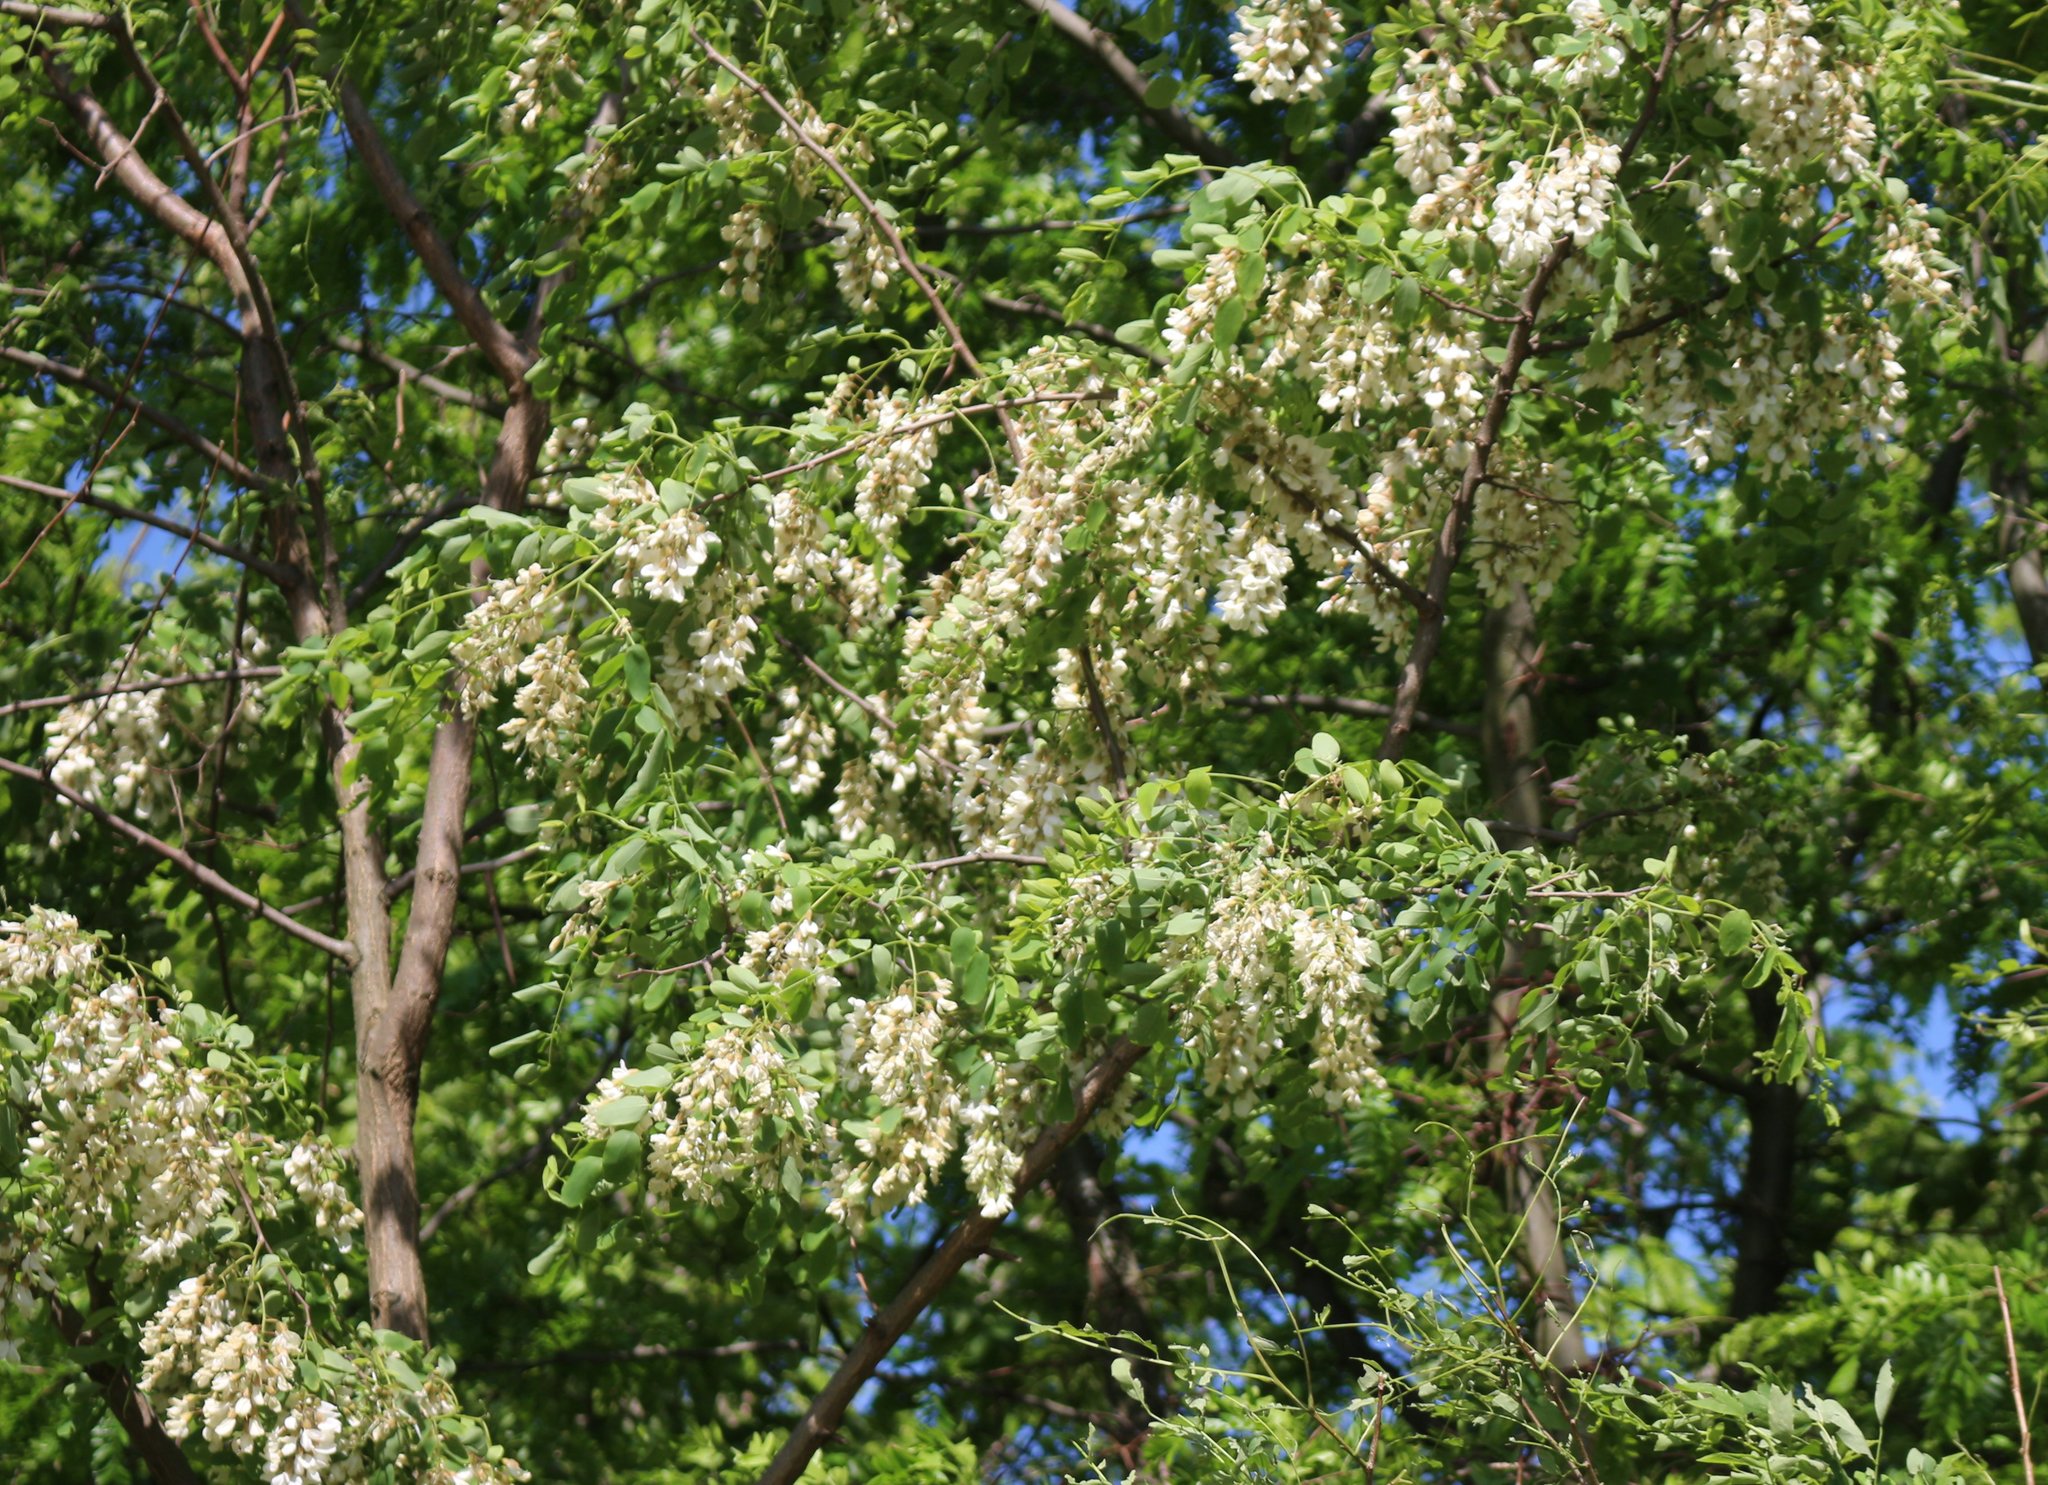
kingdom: Plantae
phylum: Tracheophyta
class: Magnoliopsida
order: Fabales
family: Fabaceae
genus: Robinia
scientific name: Robinia pseudoacacia
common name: Black locust
